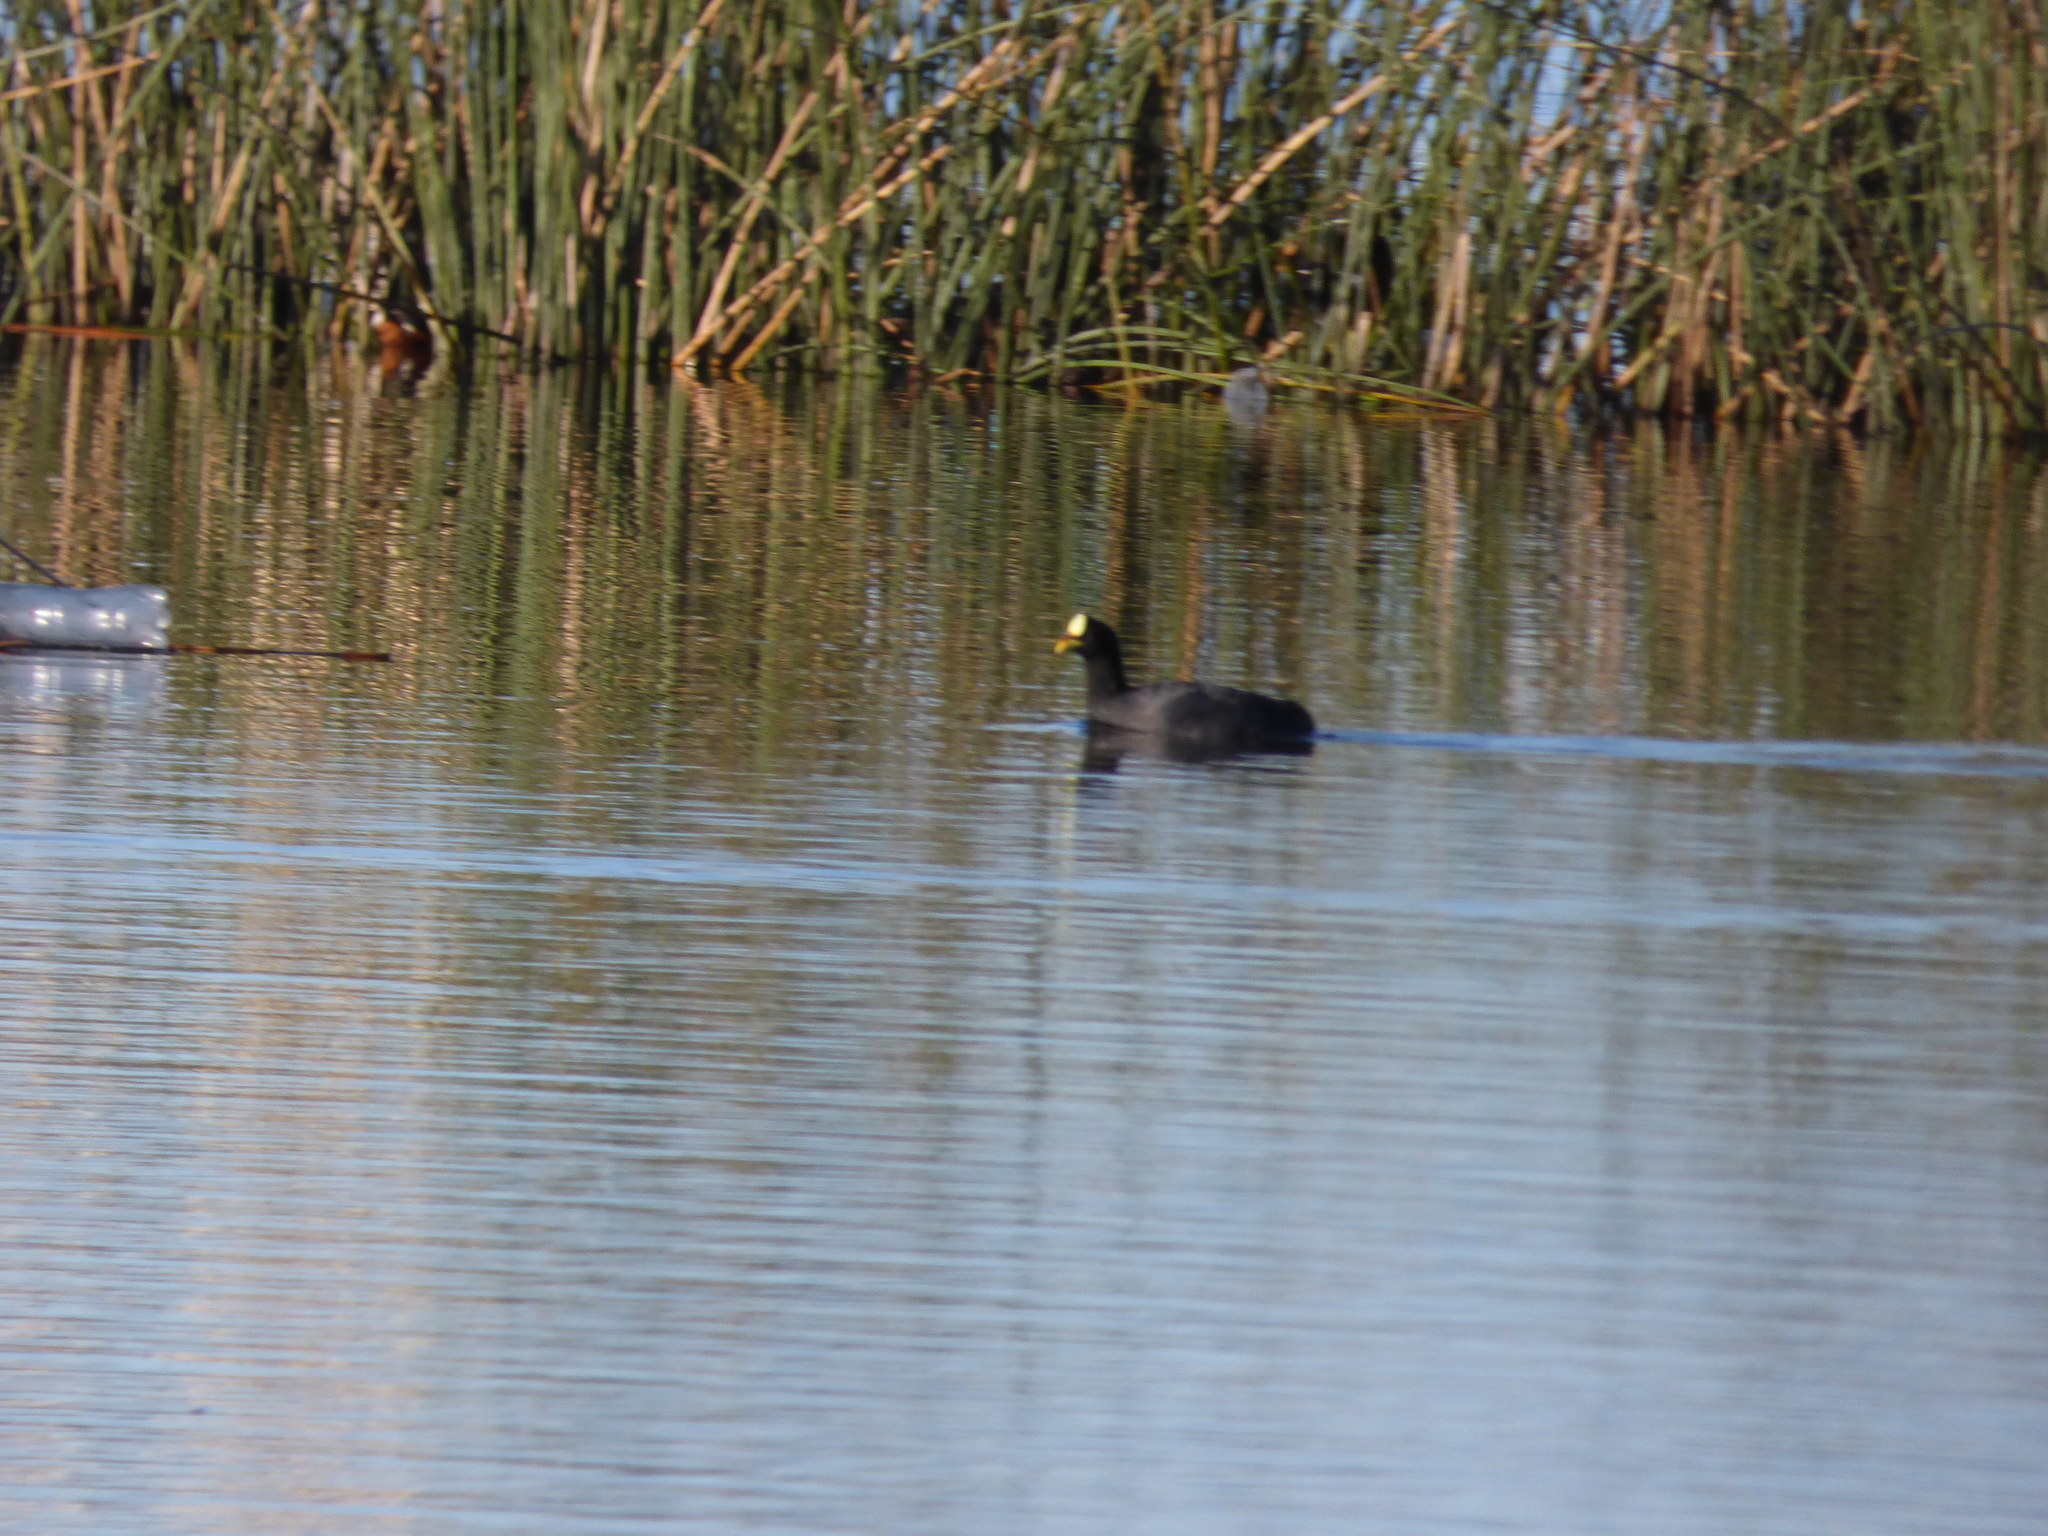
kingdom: Animalia
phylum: Chordata
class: Aves
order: Gruiformes
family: Rallidae
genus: Fulica
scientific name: Fulica armillata
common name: Red-gartered coot
